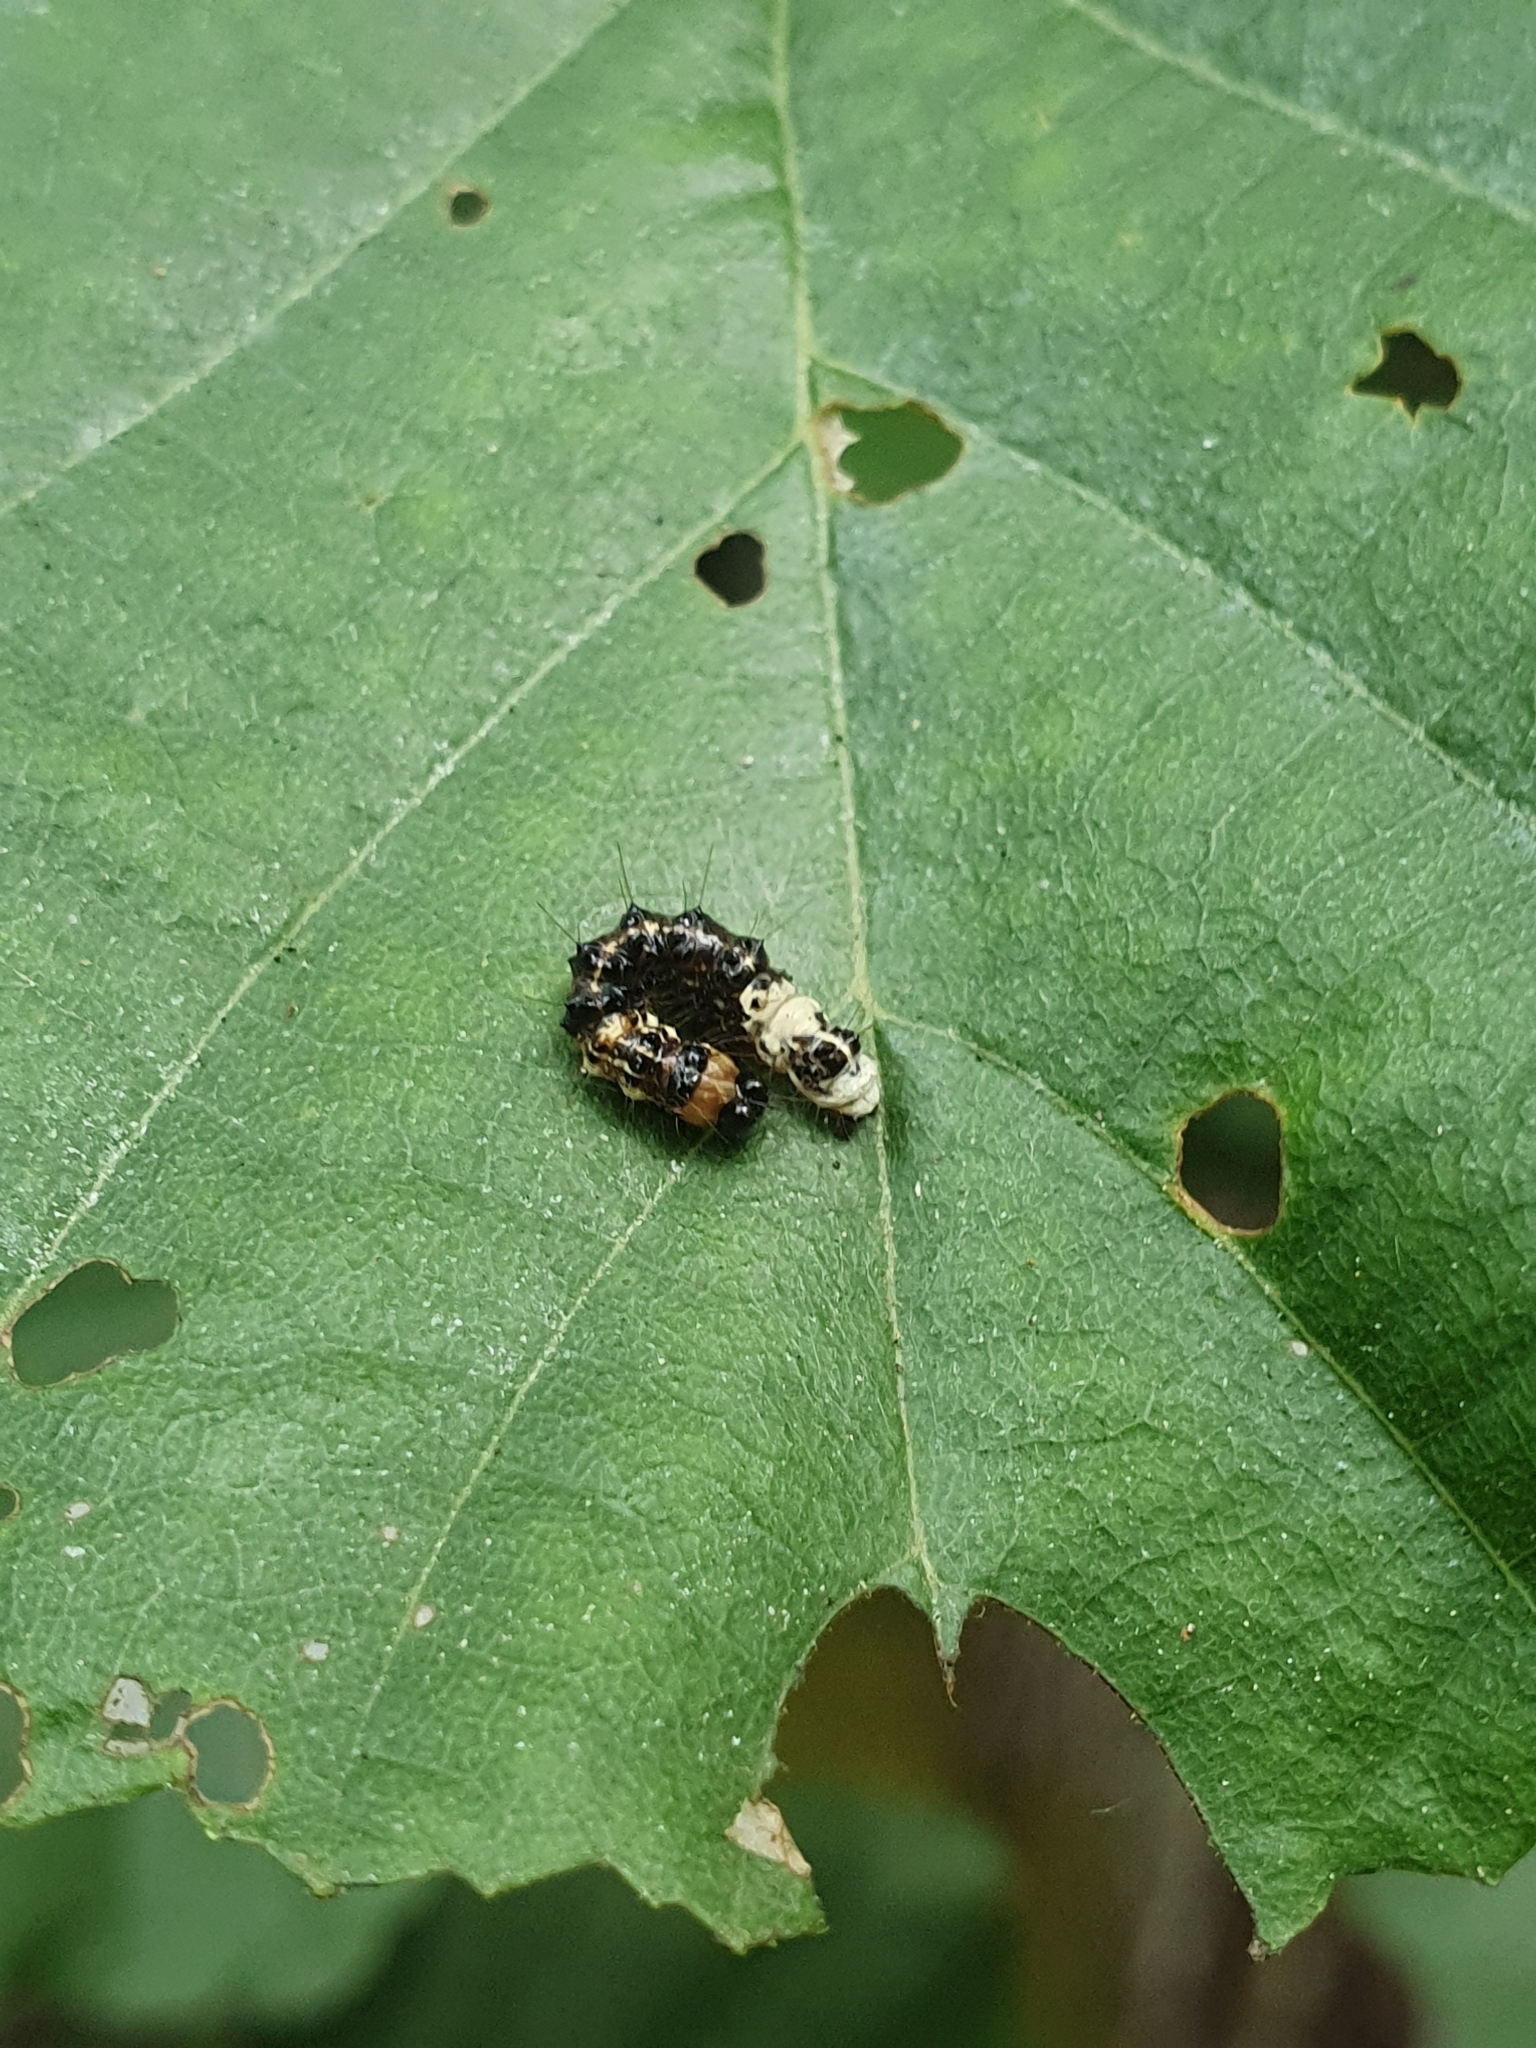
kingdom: Animalia
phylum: Arthropoda
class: Insecta
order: Lepidoptera
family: Noctuidae
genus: Acronicta
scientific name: Acronicta alni
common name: Alder moth
